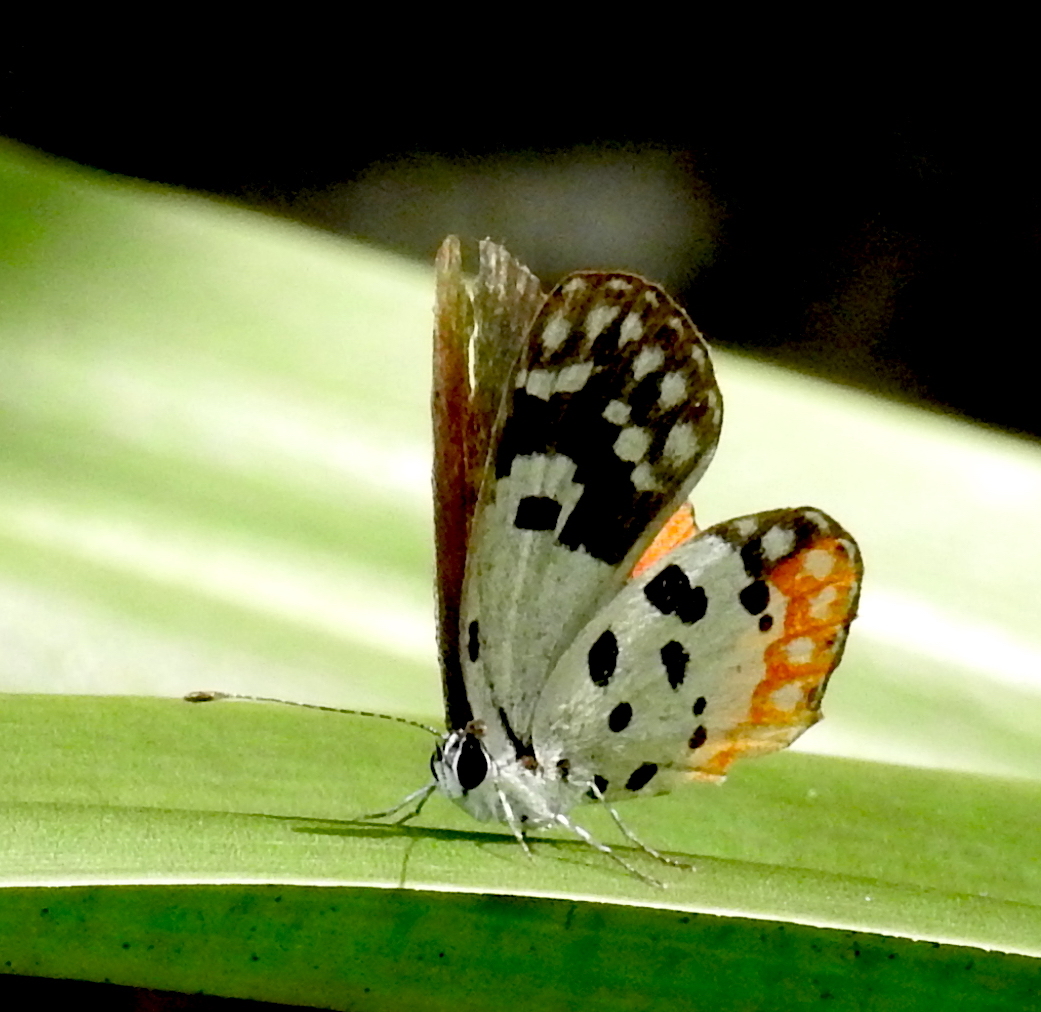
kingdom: Animalia
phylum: Arthropoda
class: Insecta
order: Lepidoptera
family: Lycaenidae
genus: Talicada
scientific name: Talicada nyseus
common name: Red pierrot
